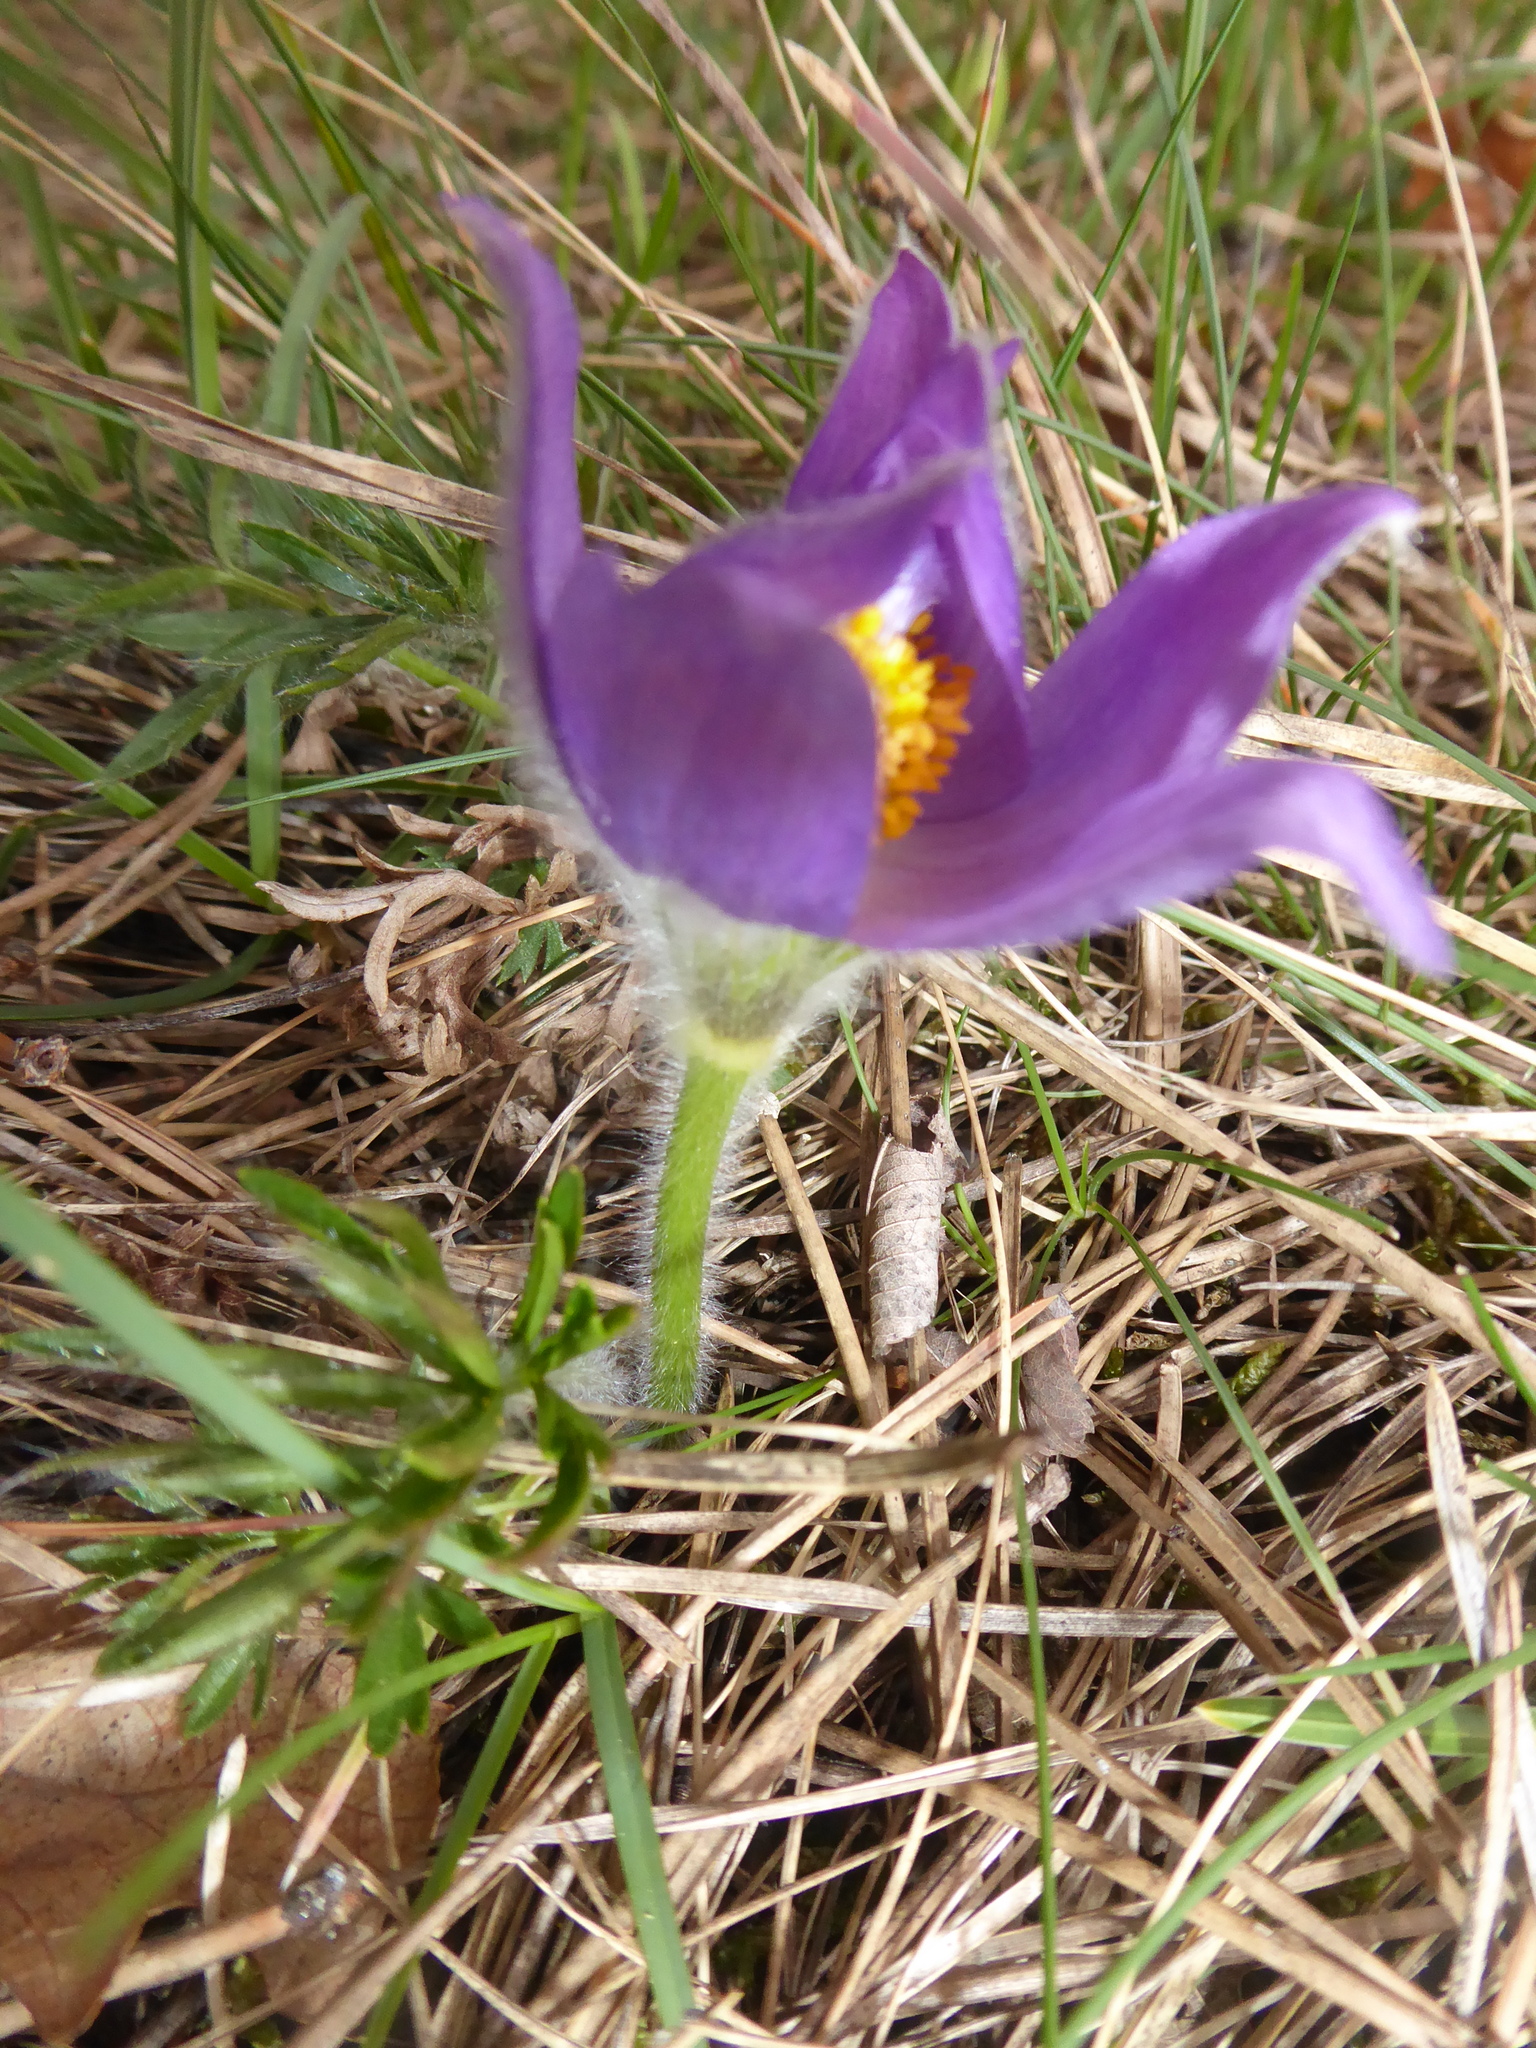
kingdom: Plantae
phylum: Tracheophyta
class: Magnoliopsida
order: Ranunculales
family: Ranunculaceae
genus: Pulsatilla
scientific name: Pulsatilla grandis
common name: Greater pasque flower
